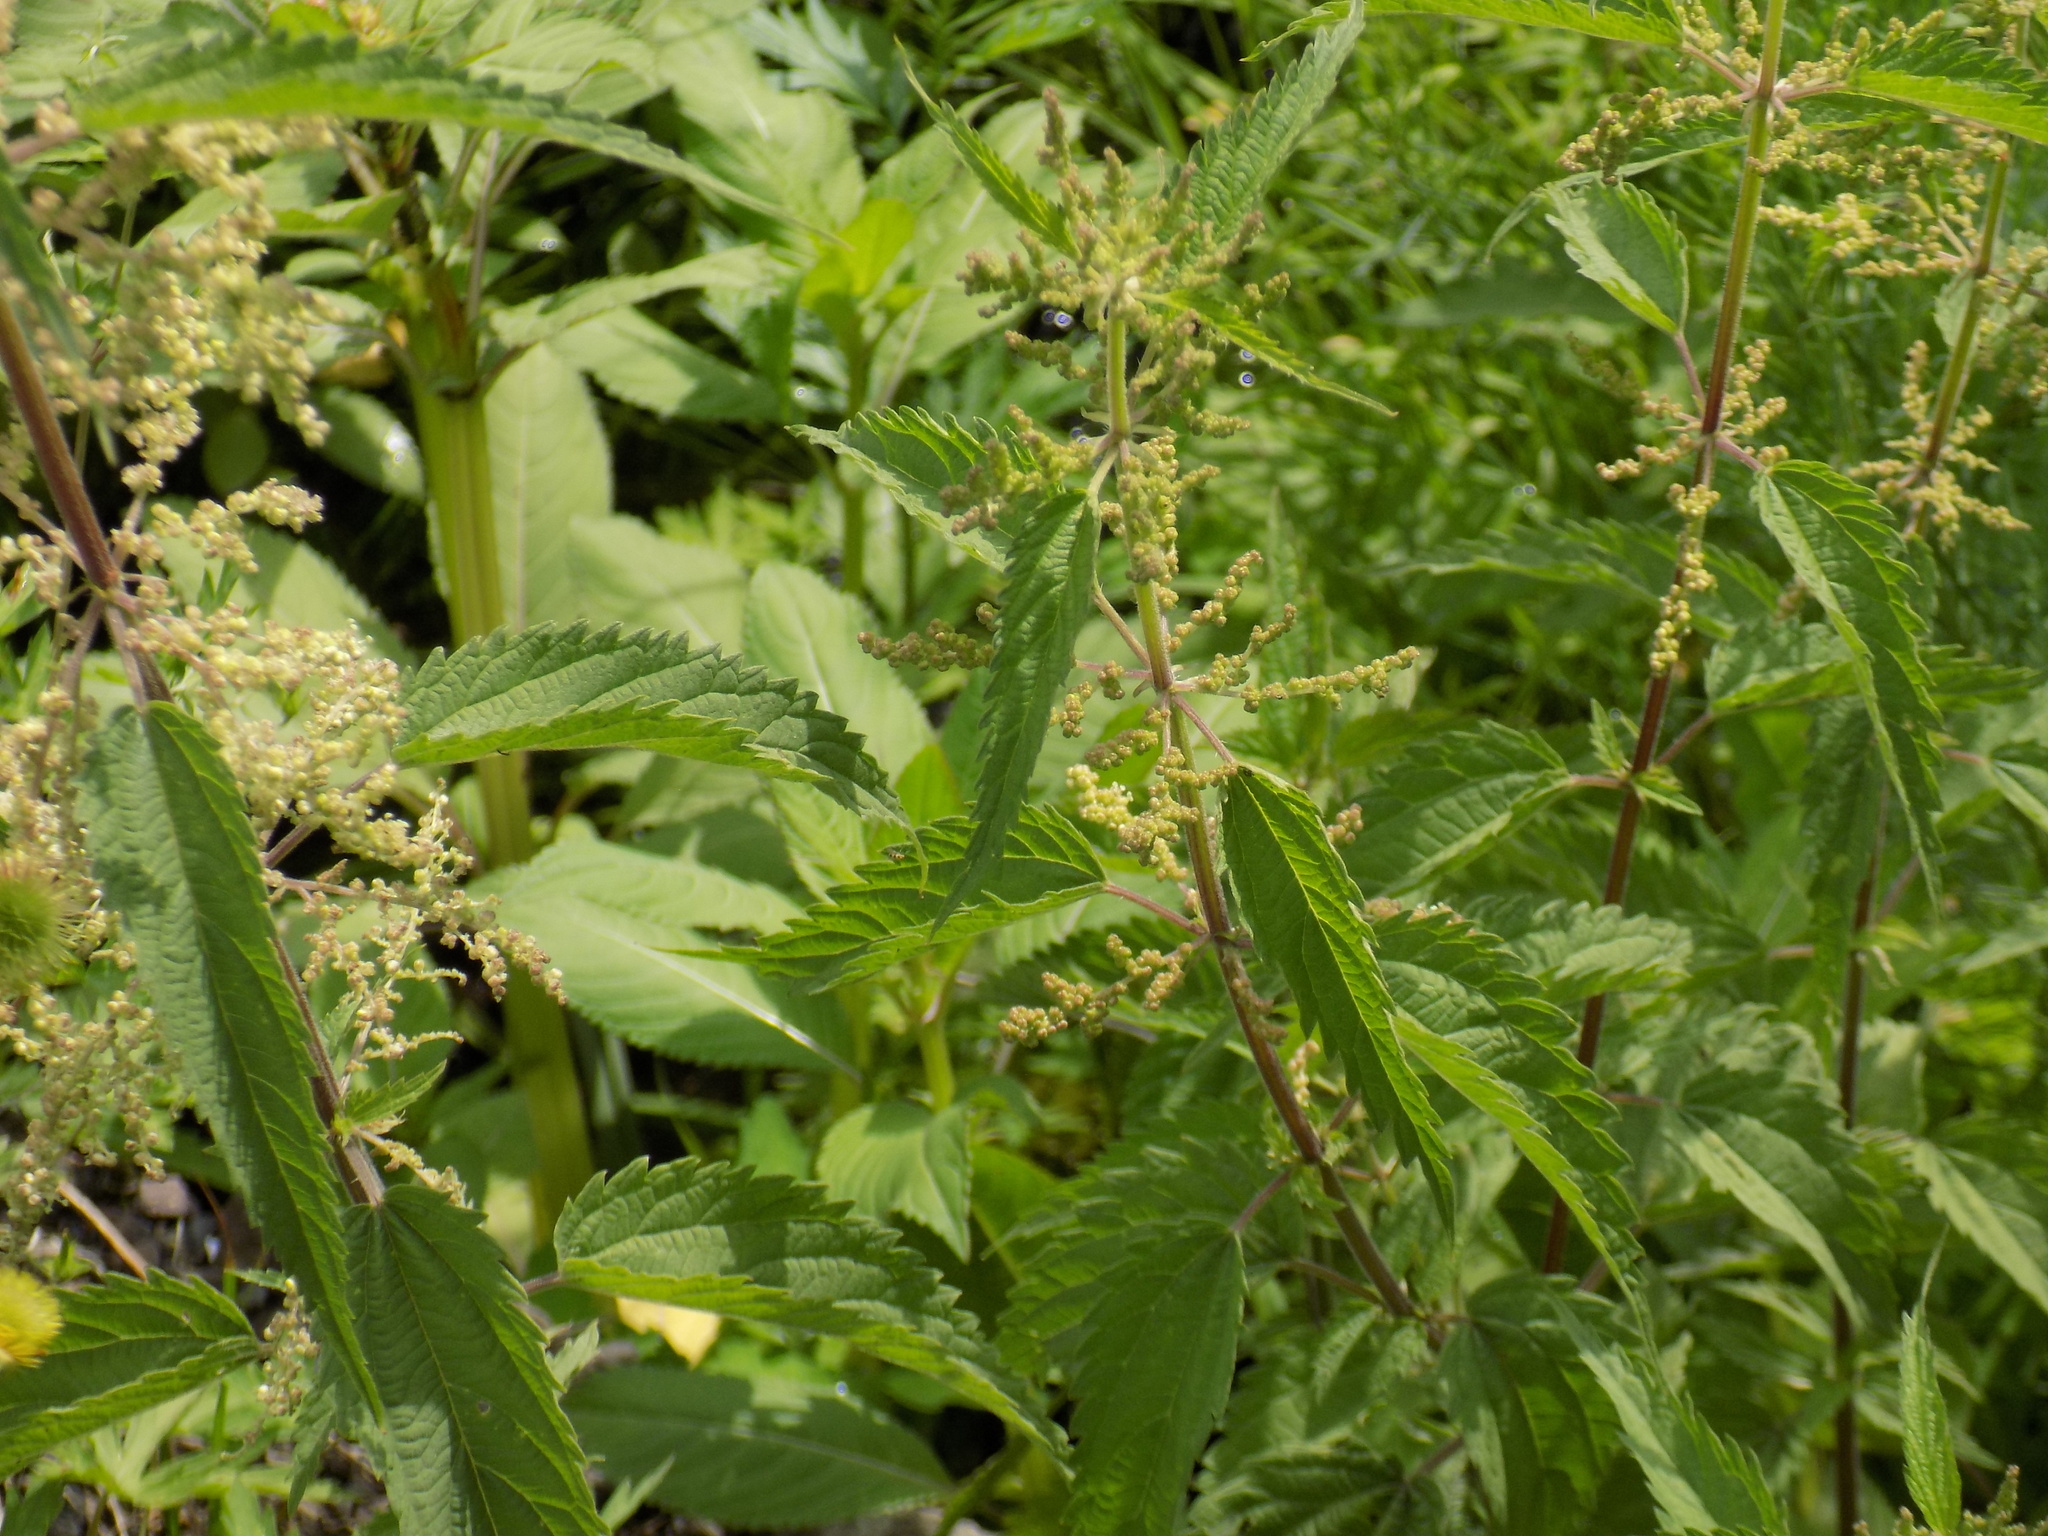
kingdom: Plantae
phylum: Tracheophyta
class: Magnoliopsida
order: Rosales
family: Urticaceae
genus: Urtica
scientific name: Urtica dioica
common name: Common nettle
